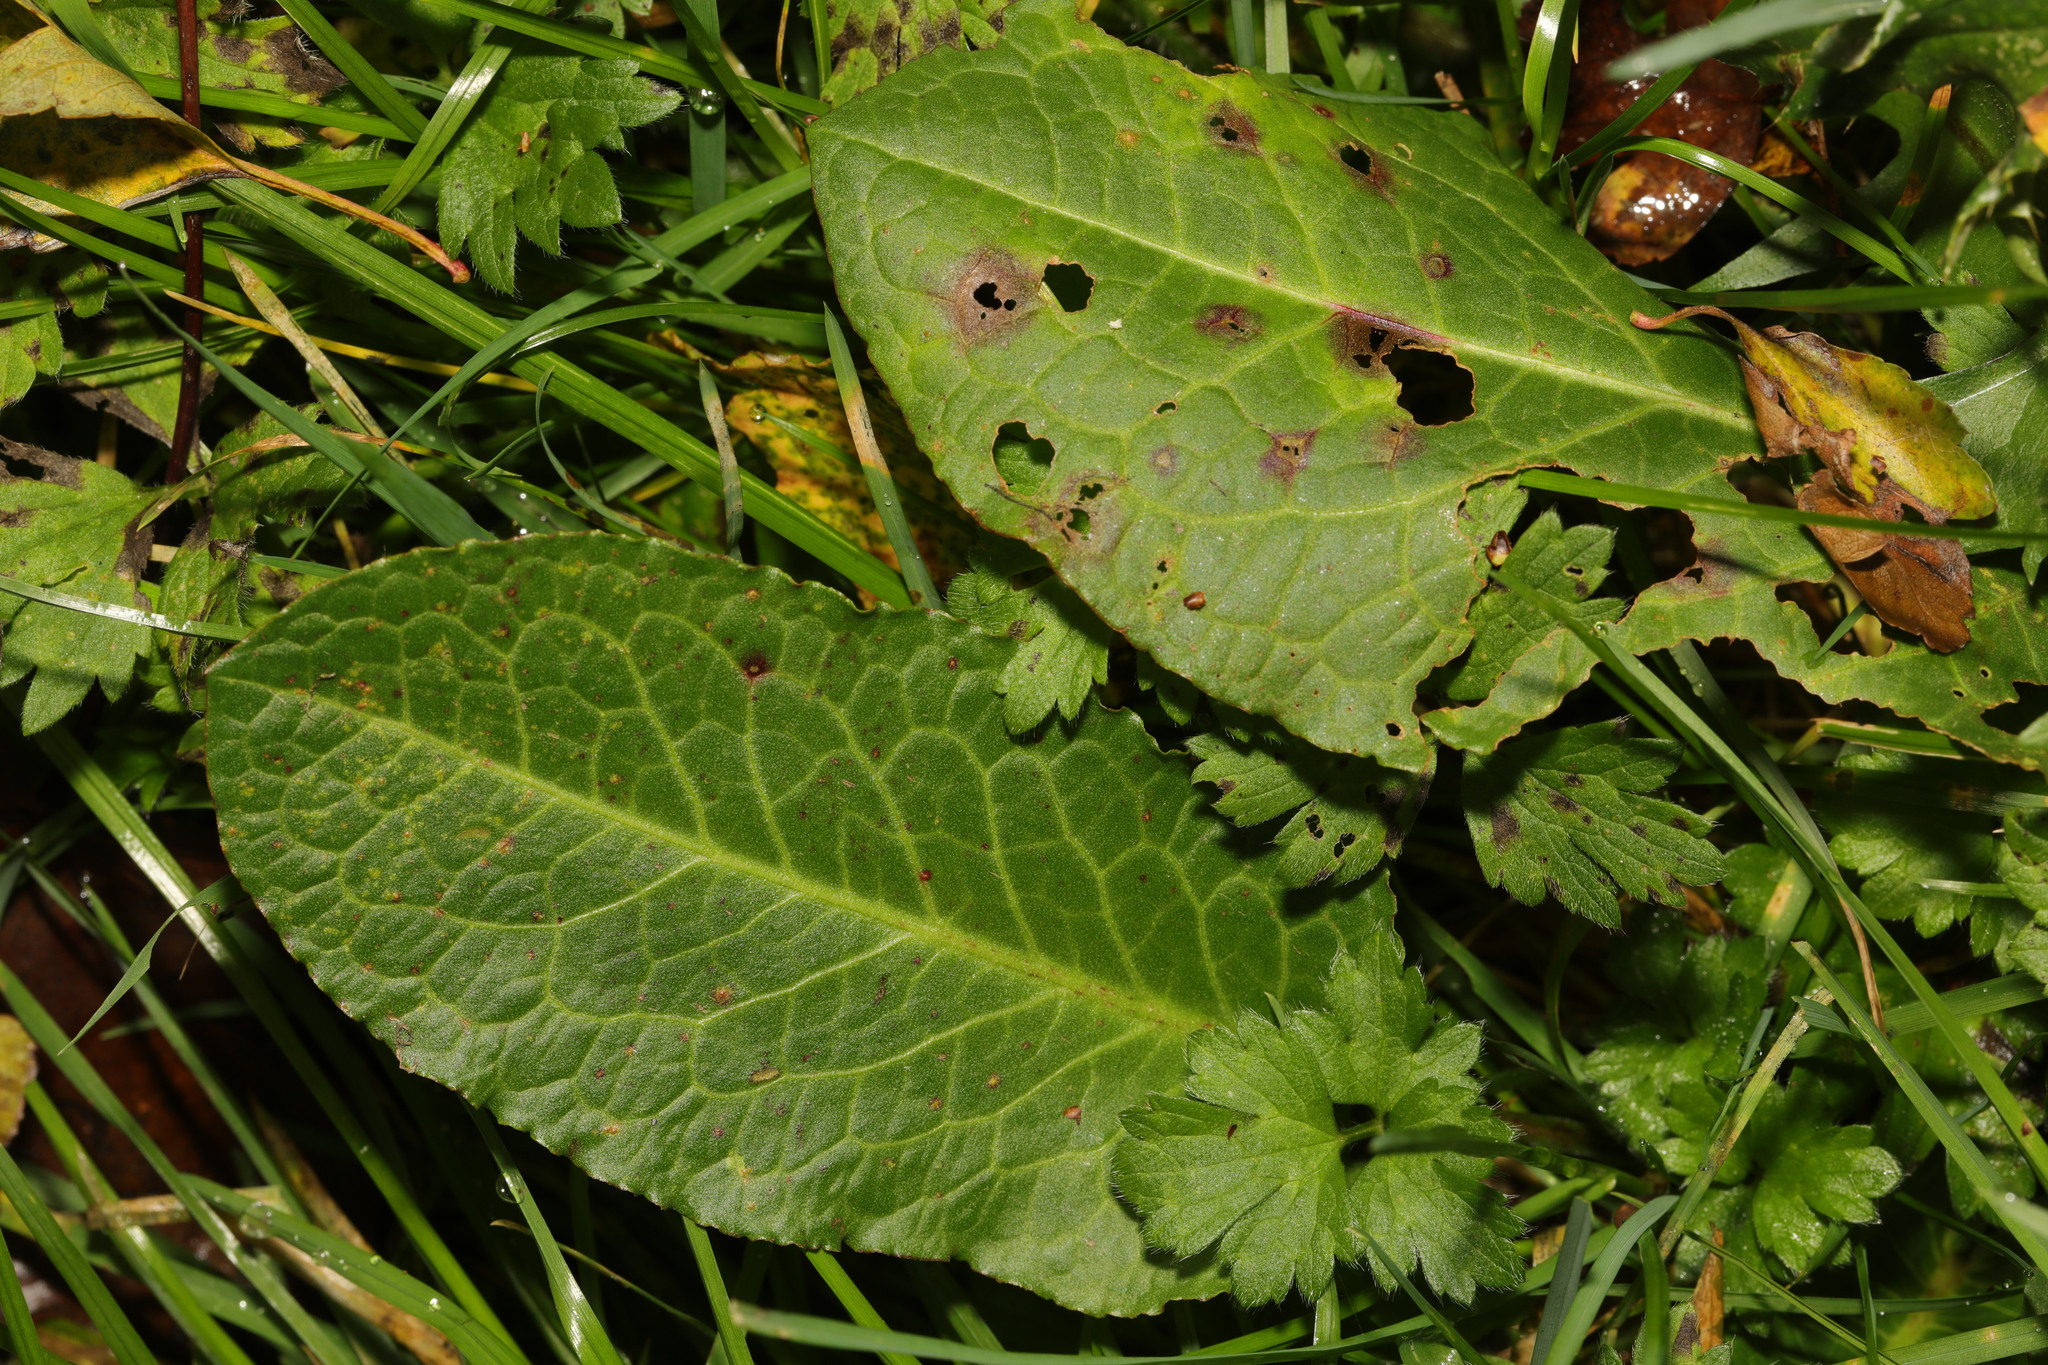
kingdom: Plantae
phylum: Tracheophyta
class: Magnoliopsida
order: Caryophyllales
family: Polygonaceae
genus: Rumex
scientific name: Rumex obtusifolius
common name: Bitter dock
